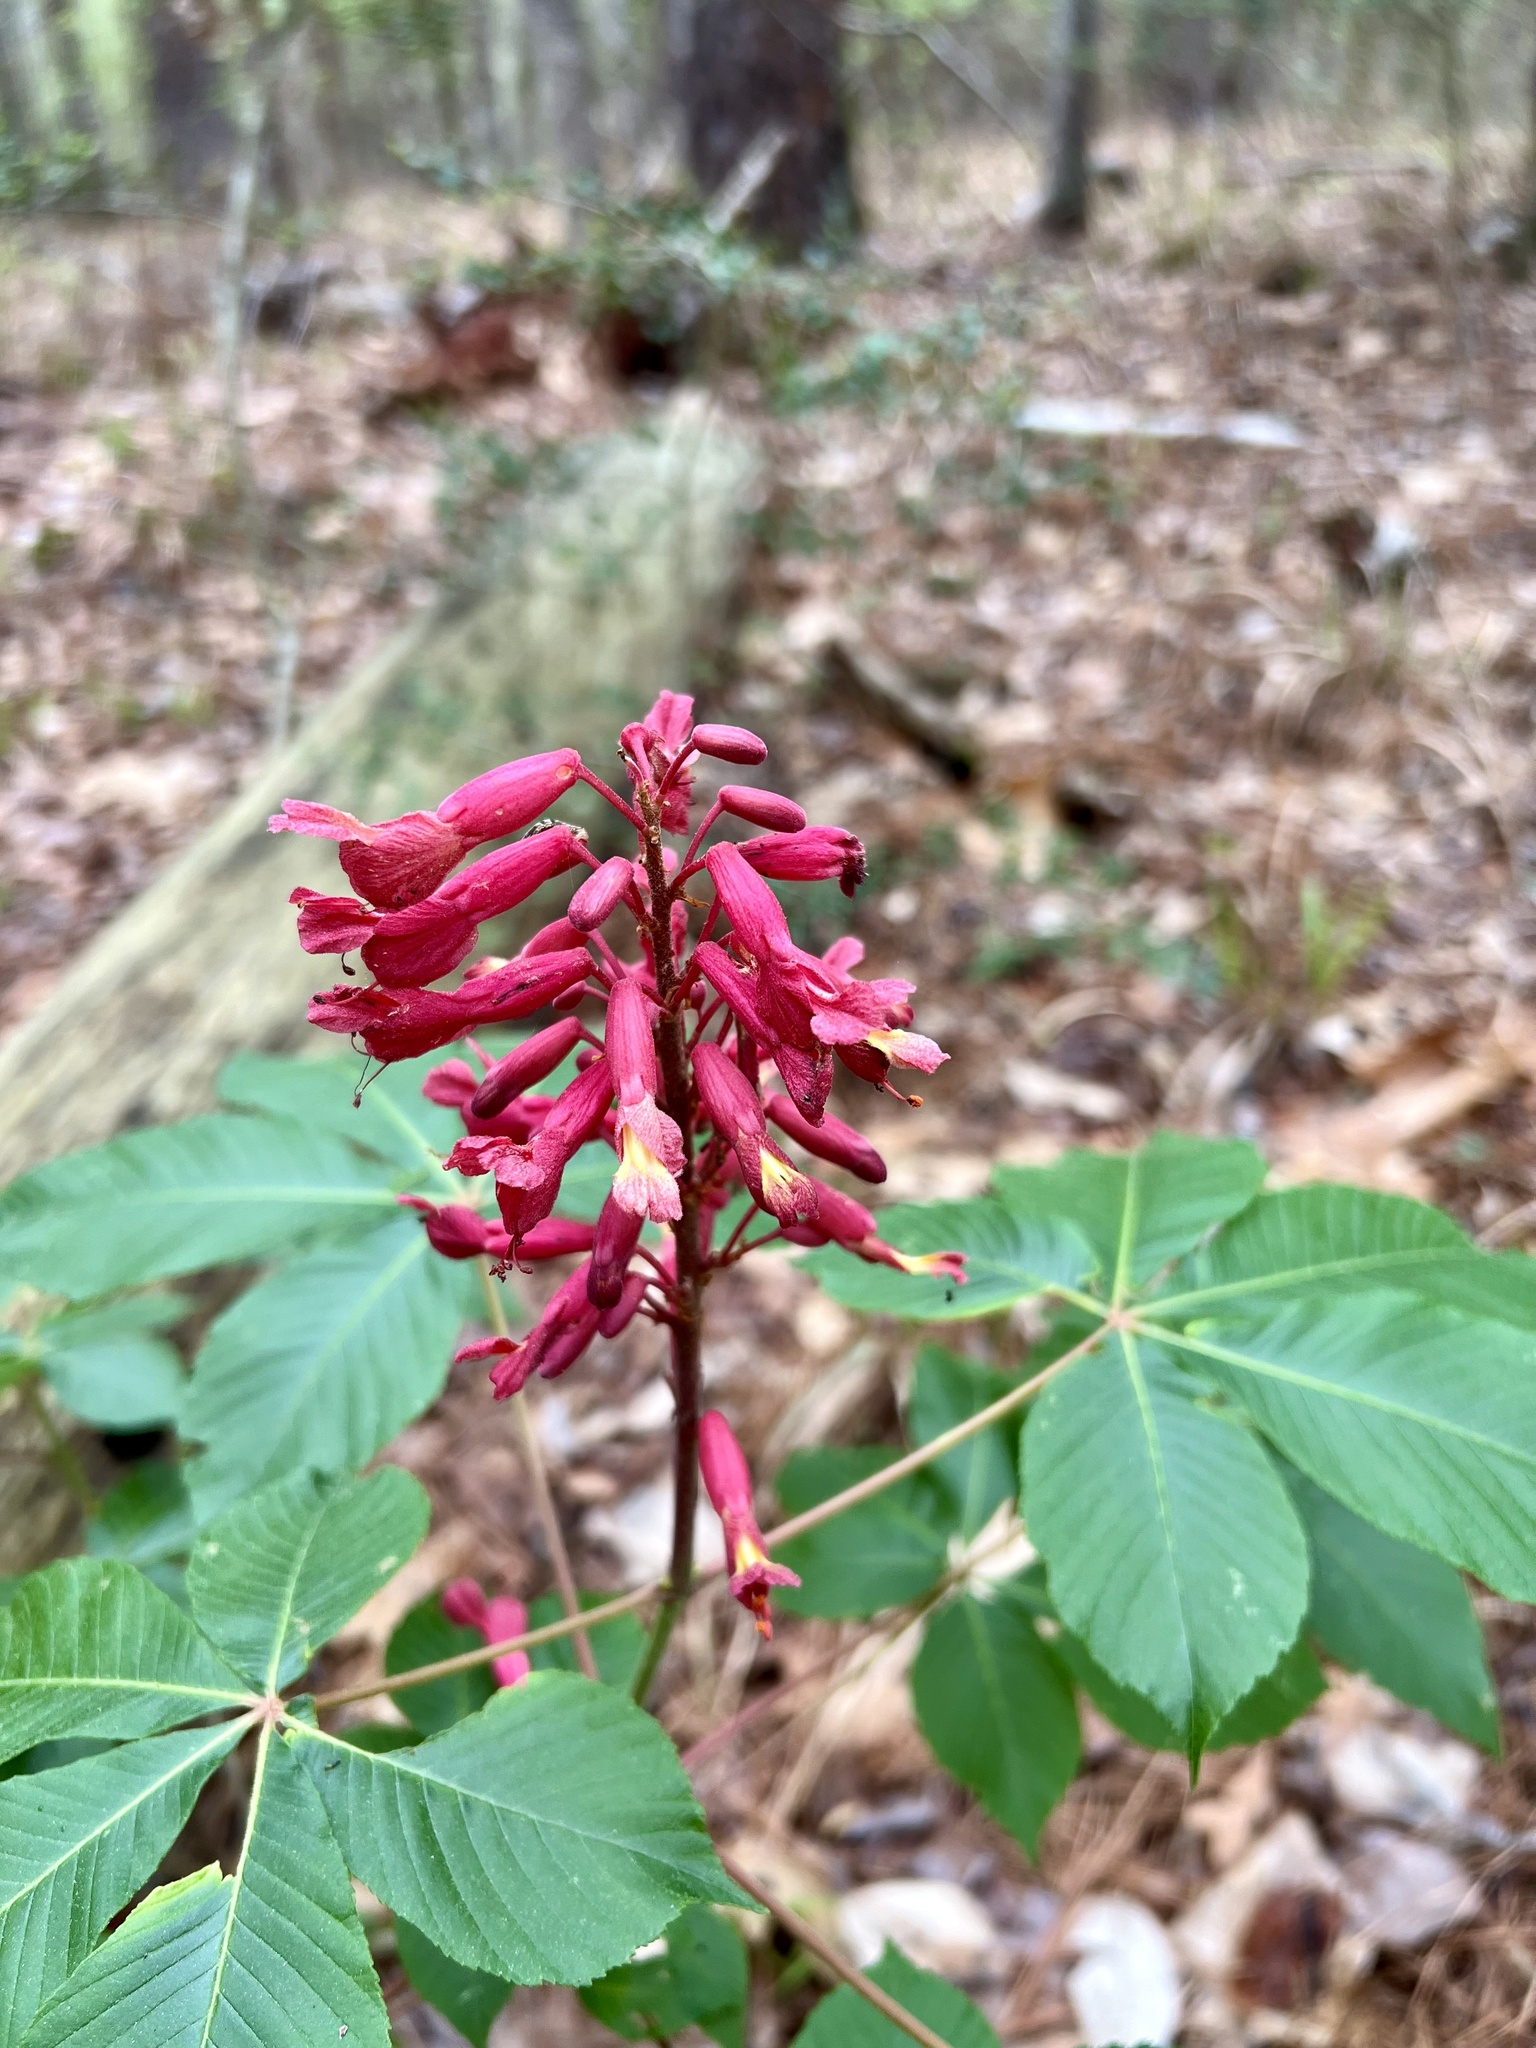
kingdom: Plantae
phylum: Tracheophyta
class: Magnoliopsida
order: Sapindales
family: Sapindaceae
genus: Aesculus
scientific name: Aesculus pavia
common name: Red buckeye
